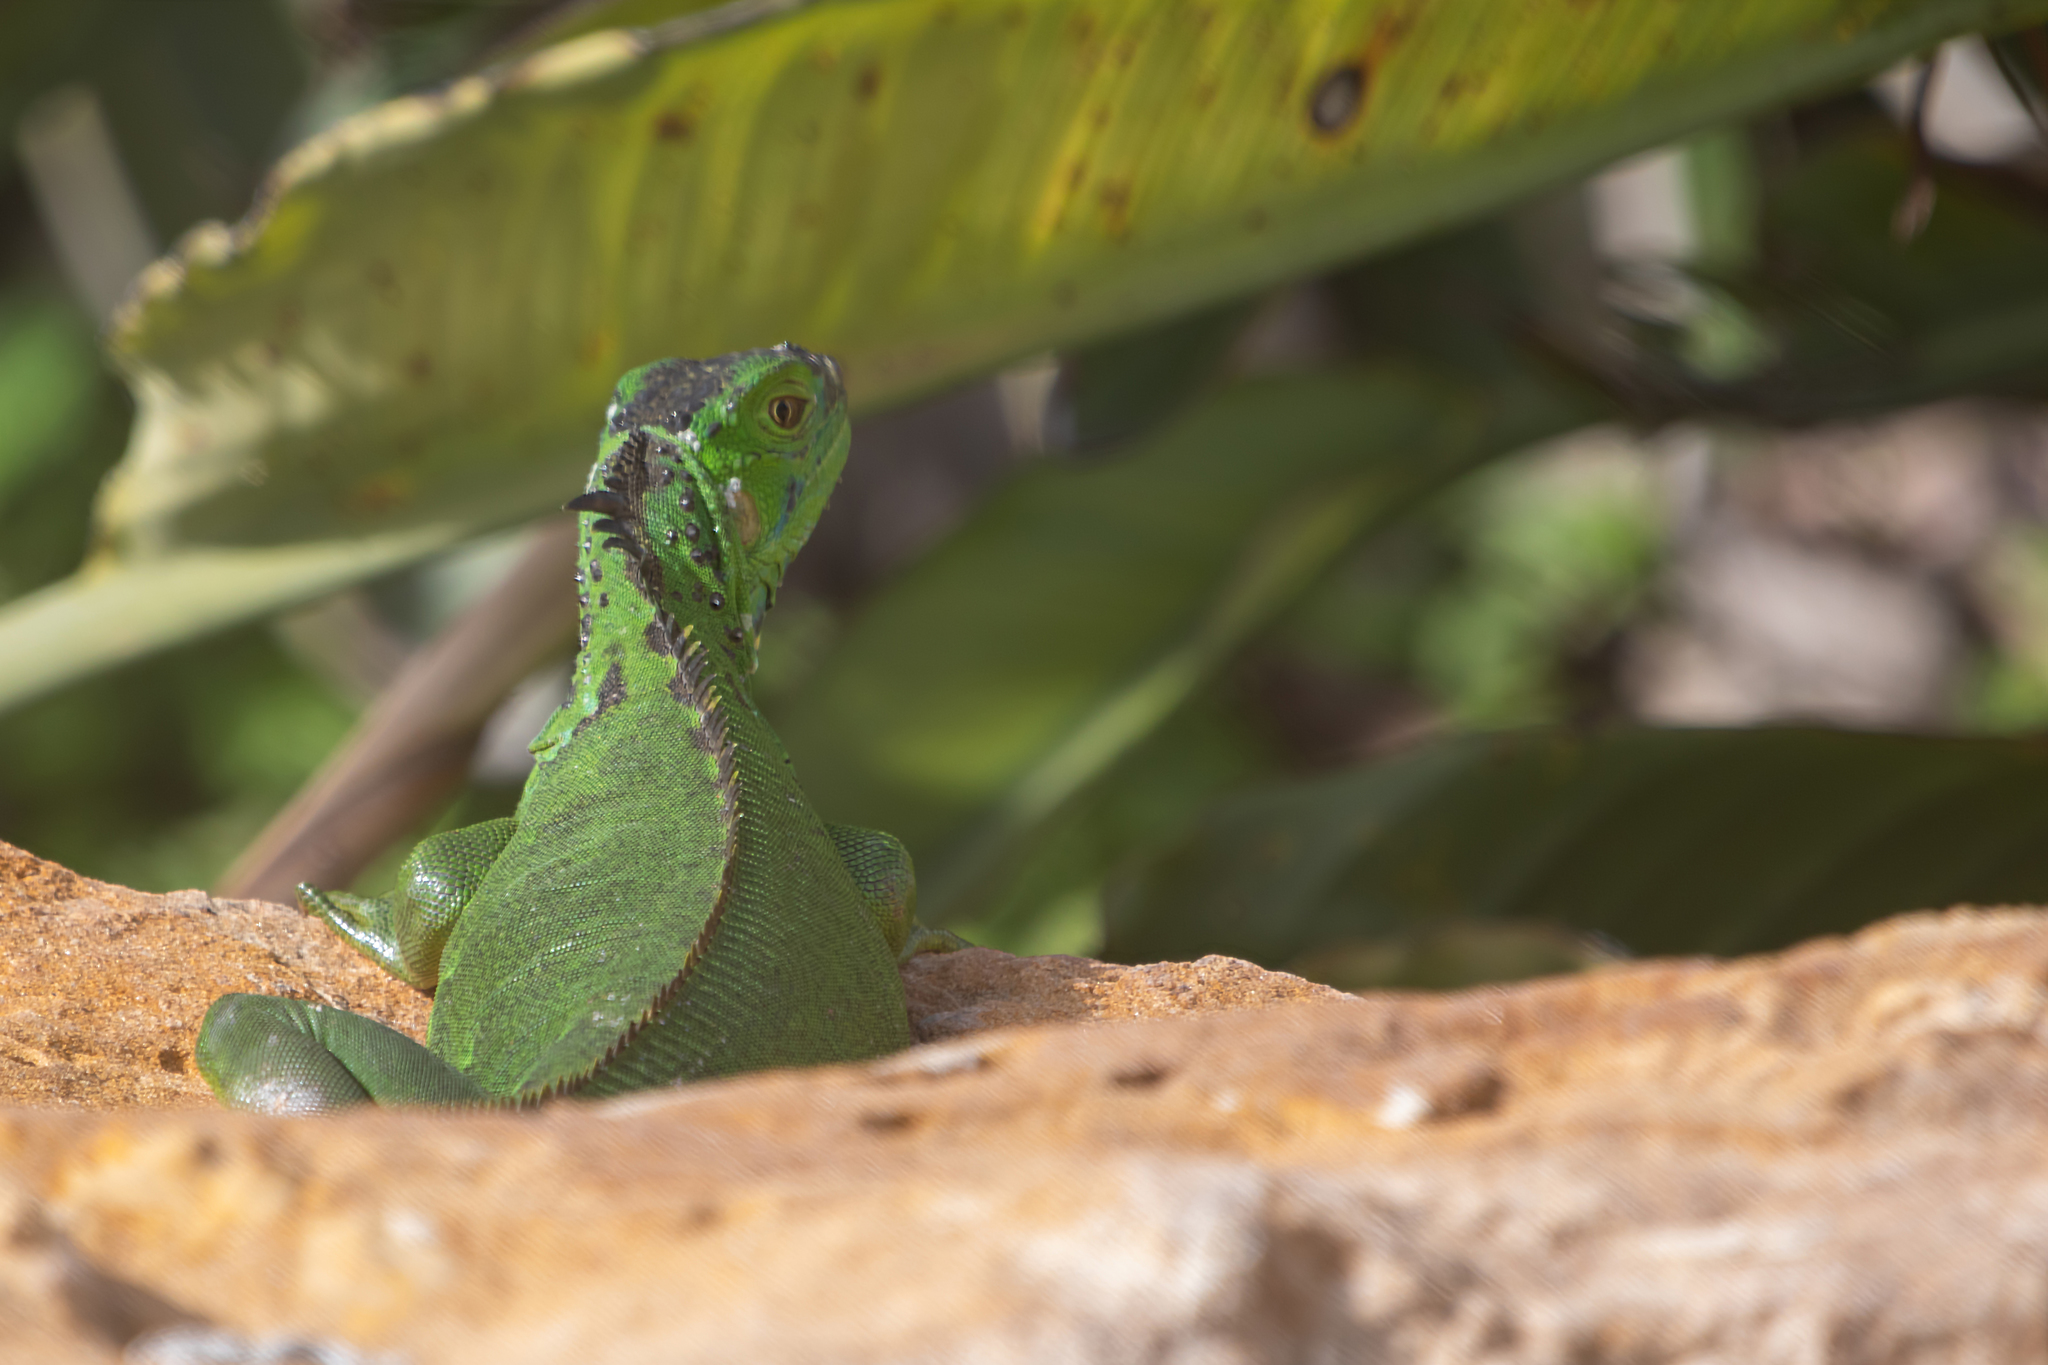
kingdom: Animalia
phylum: Chordata
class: Squamata
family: Iguanidae
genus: Iguana
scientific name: Iguana iguana
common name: Green iguana
